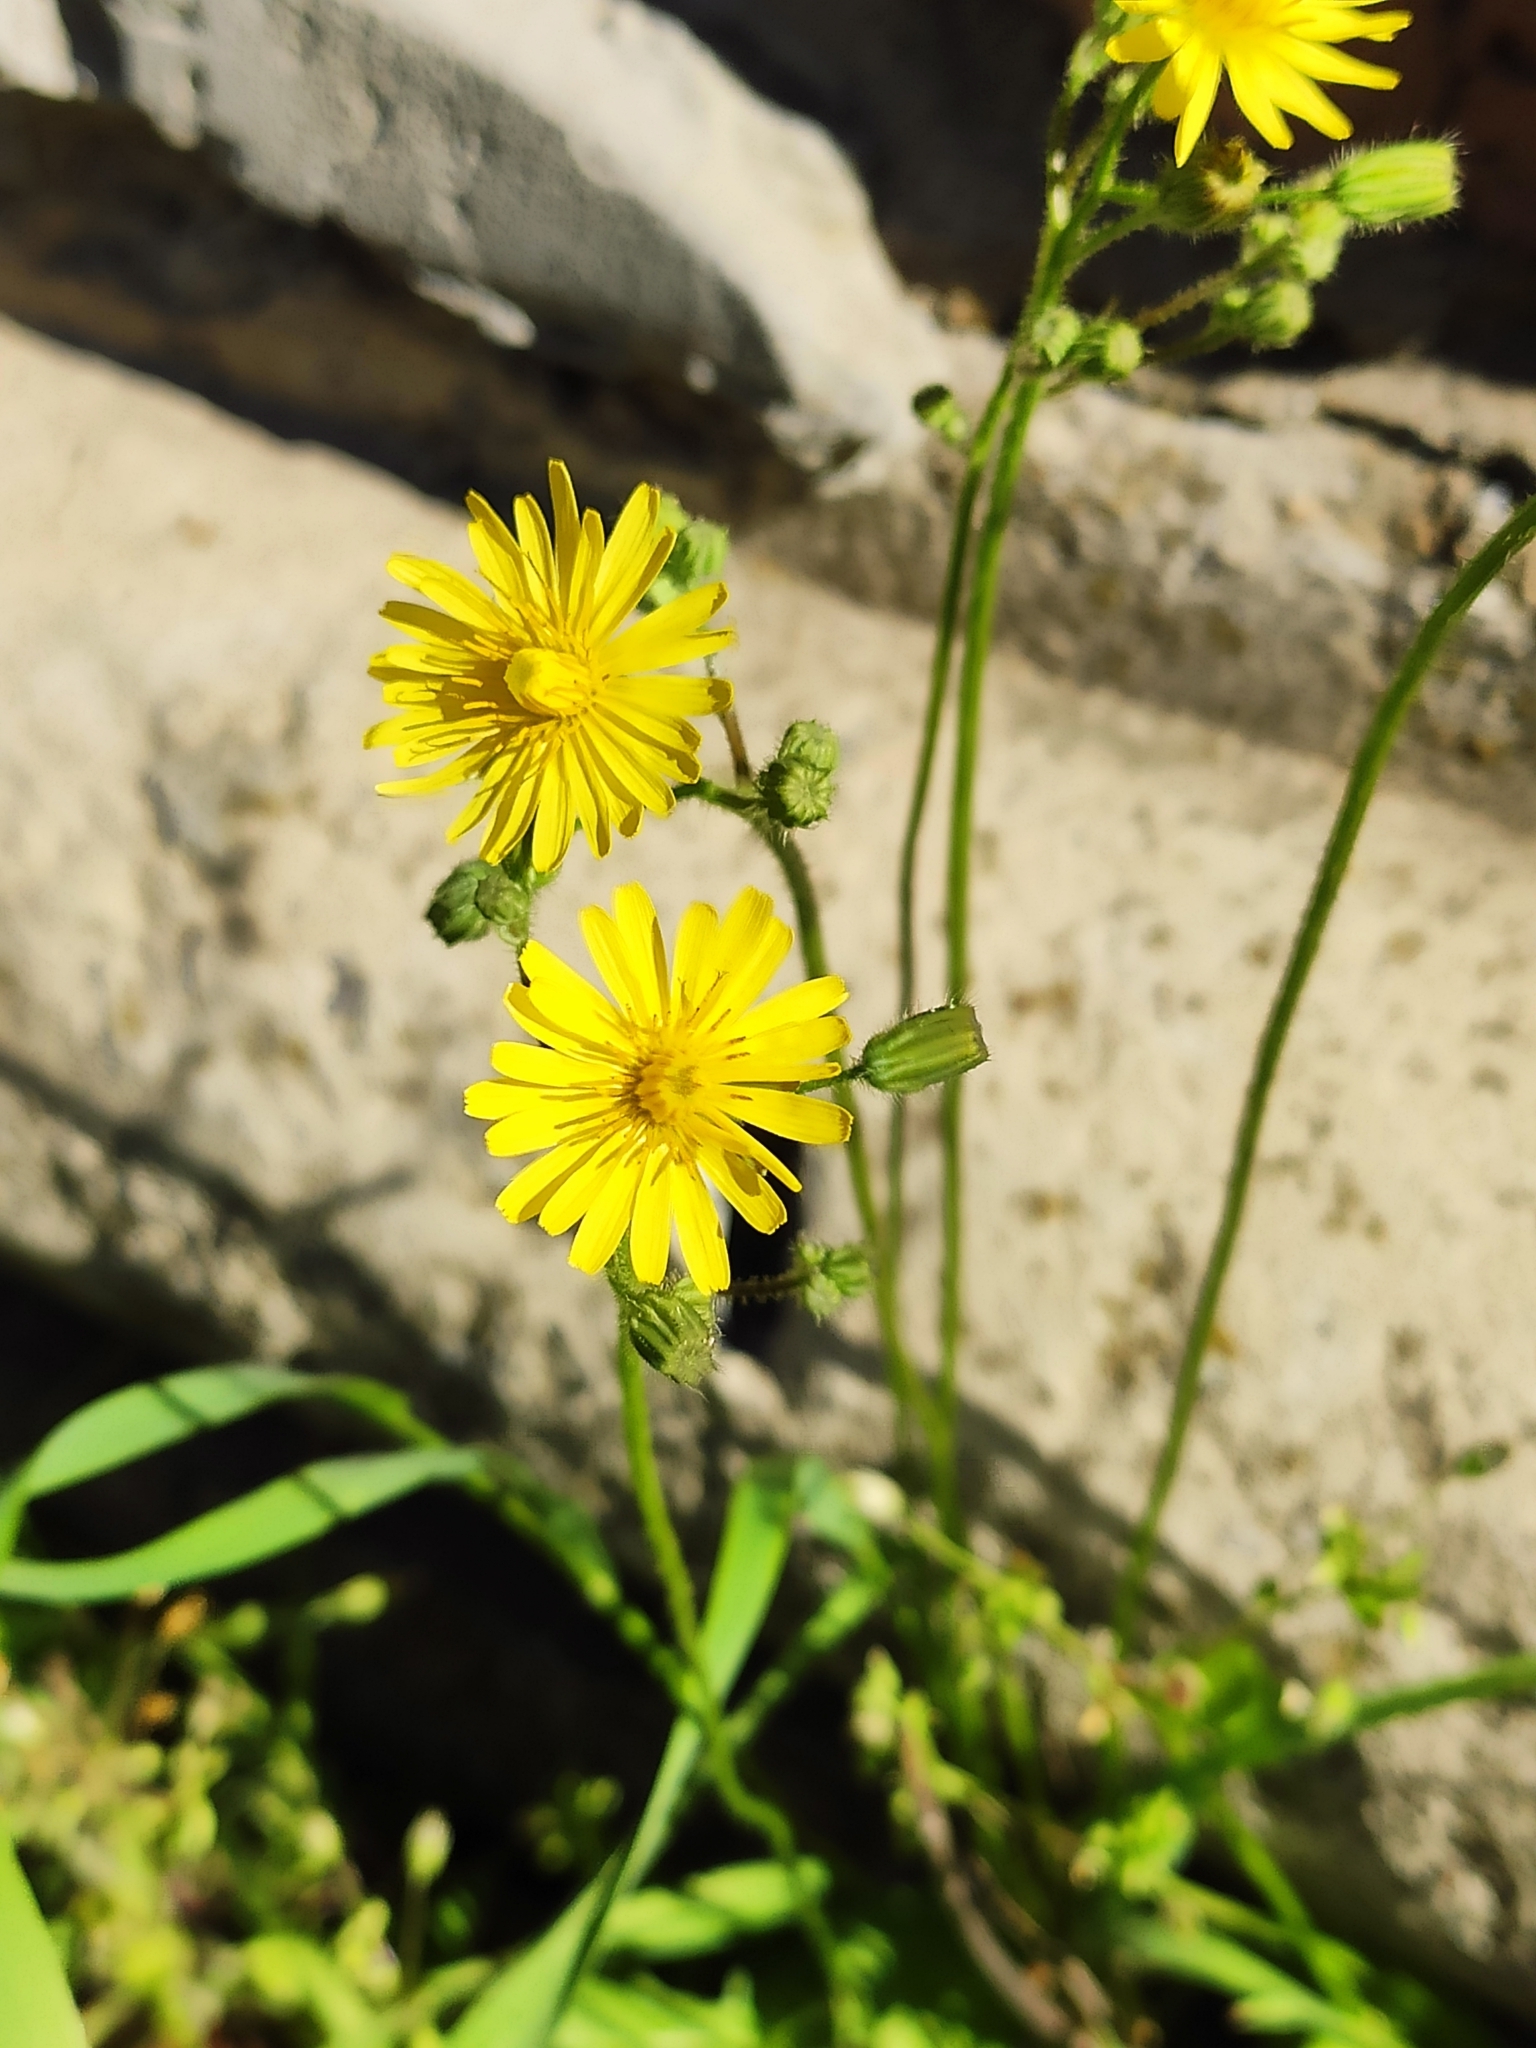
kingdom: Plantae
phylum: Tracheophyta
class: Magnoliopsida
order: Asterales
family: Asteraceae
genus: Crepis
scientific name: Crepis sancta
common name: Hawk's-beard
